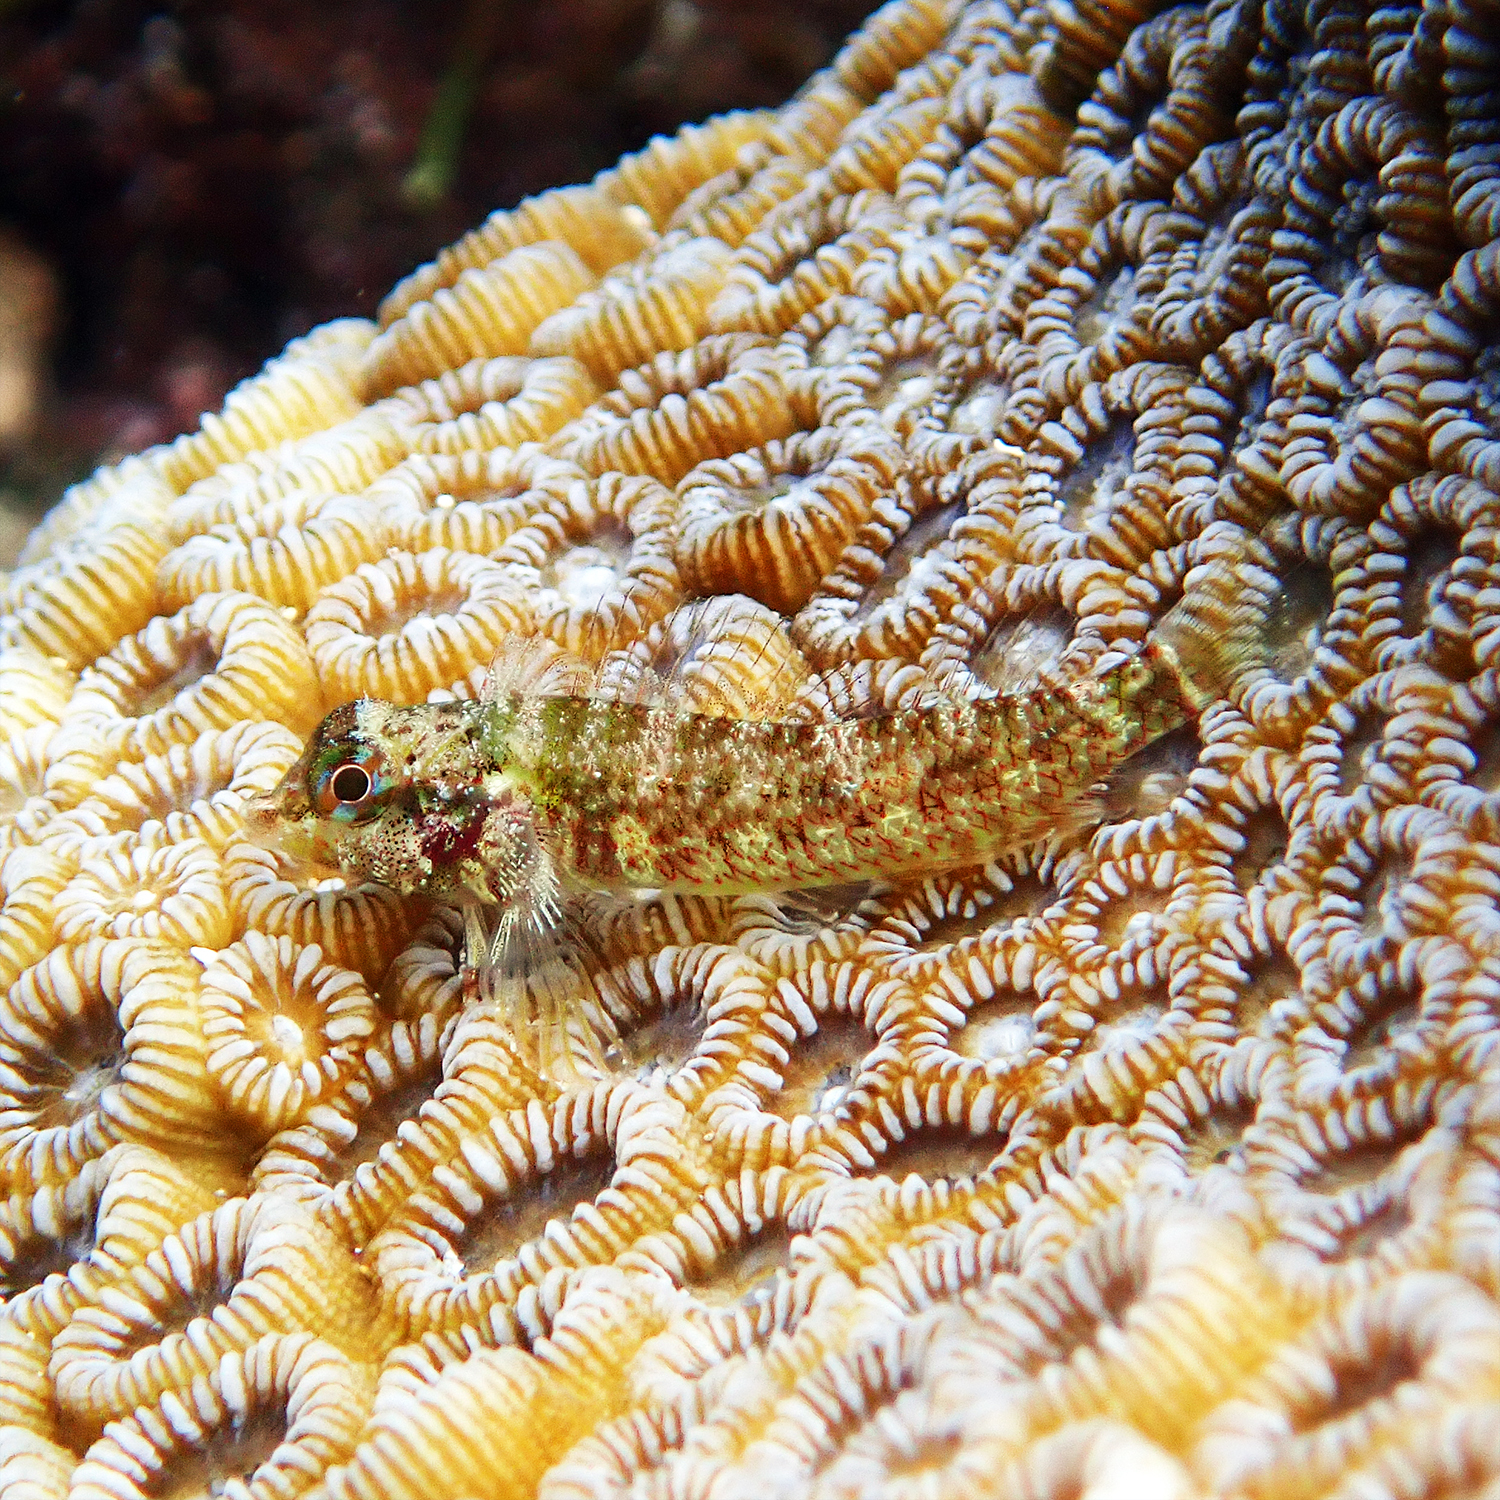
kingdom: Animalia
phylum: Chordata
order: Perciformes
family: Tripterygiidae
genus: Enneapterygius
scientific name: Enneapterygius rufopileus
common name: Lord howe black-head triplefin
